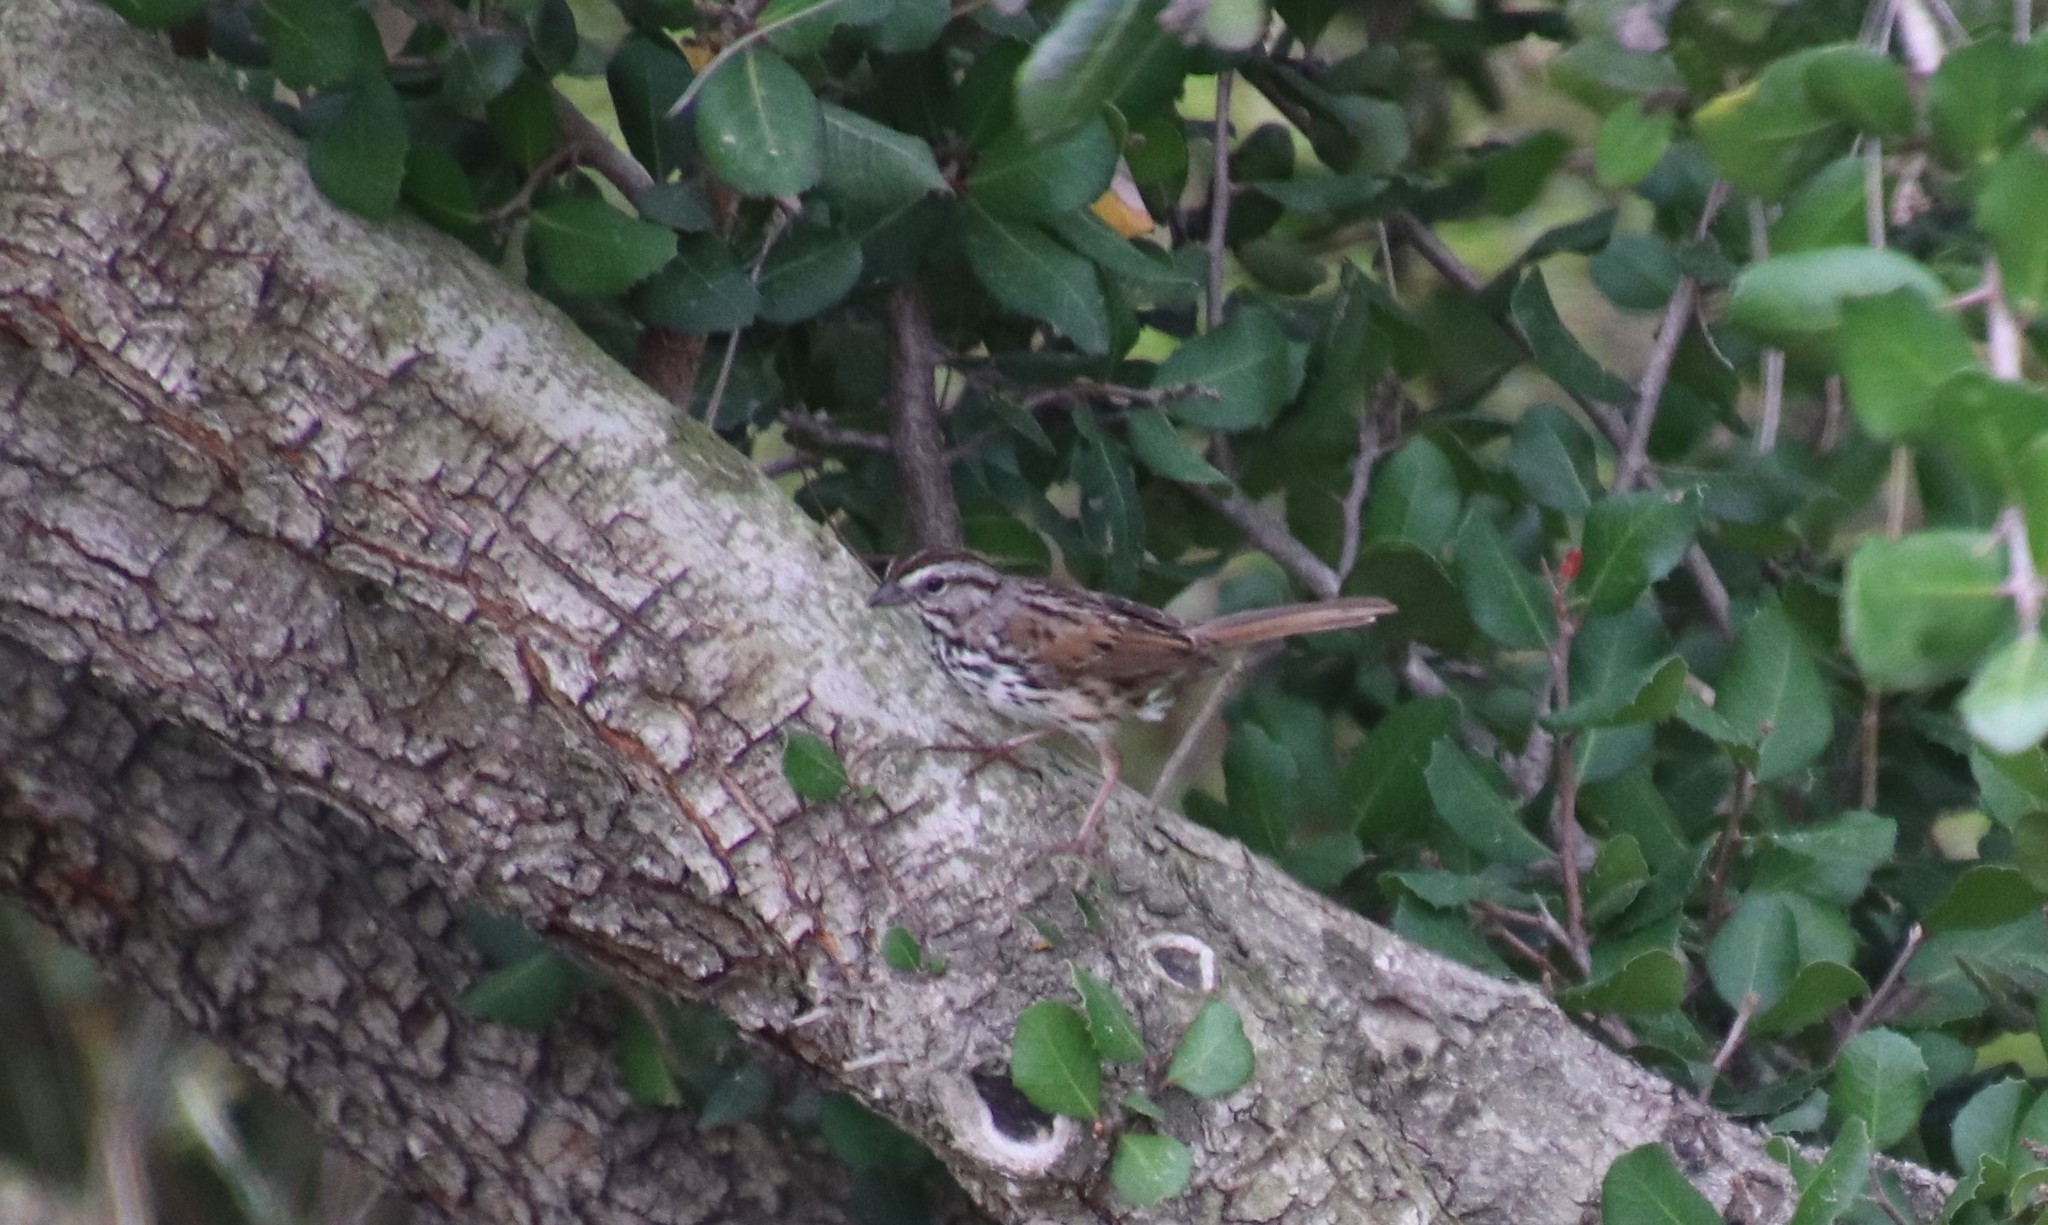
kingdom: Animalia
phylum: Chordata
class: Aves
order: Passeriformes
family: Passerellidae
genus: Melospiza
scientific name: Melospiza melodia
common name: Song sparrow
